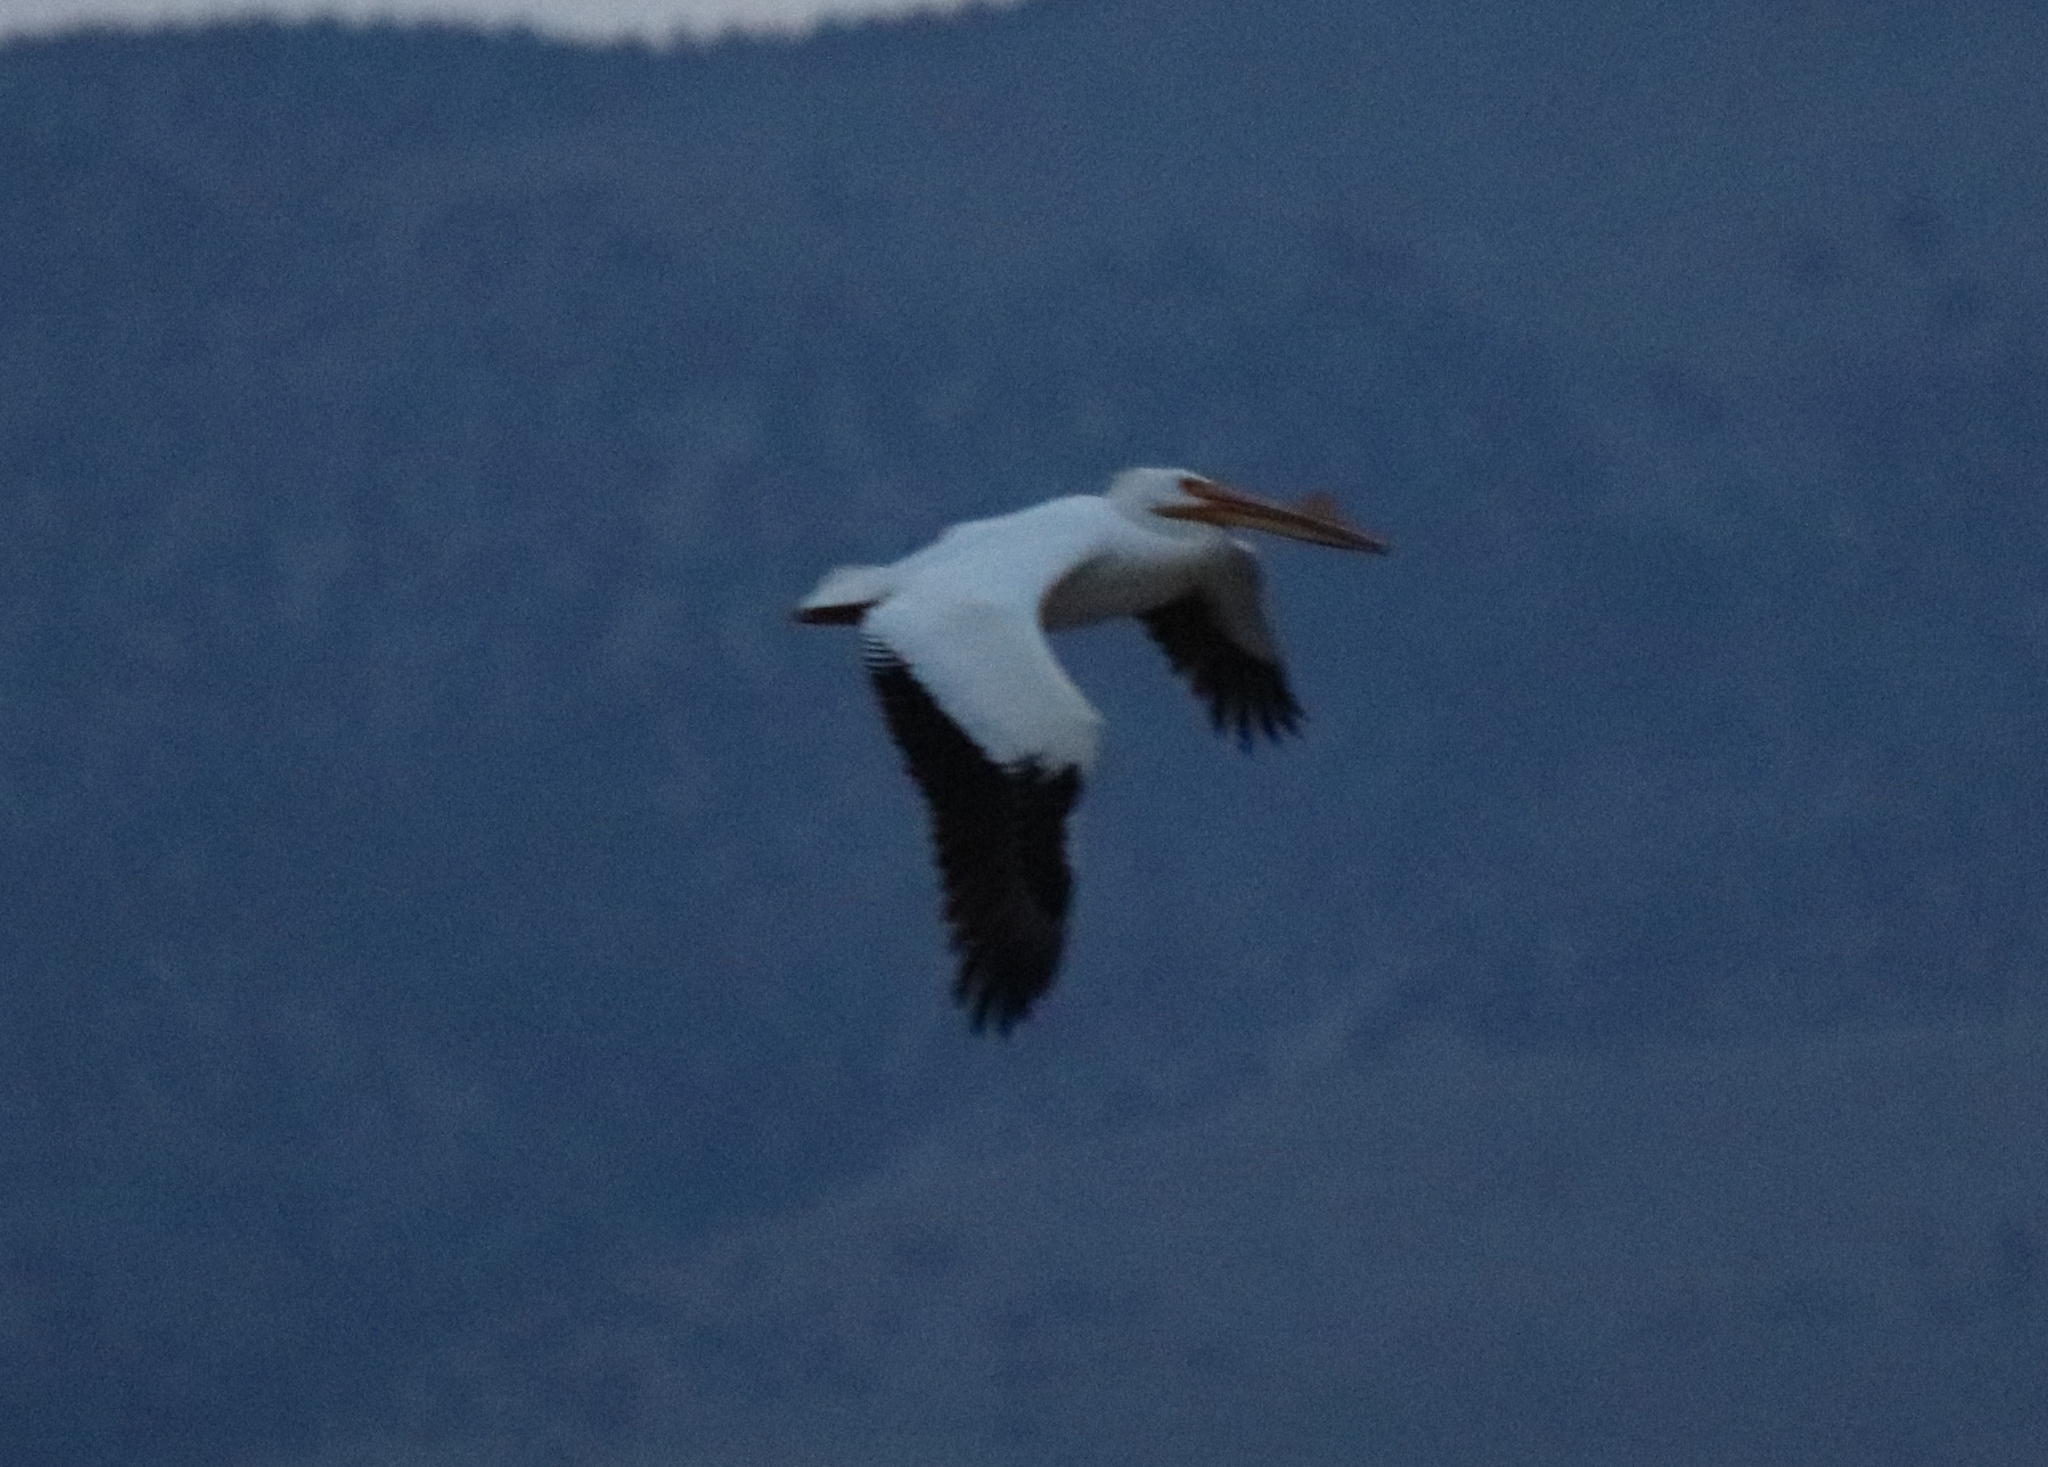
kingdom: Animalia
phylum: Chordata
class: Aves
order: Pelecaniformes
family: Pelecanidae
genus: Pelecanus
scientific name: Pelecanus erythrorhynchos
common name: American white pelican
